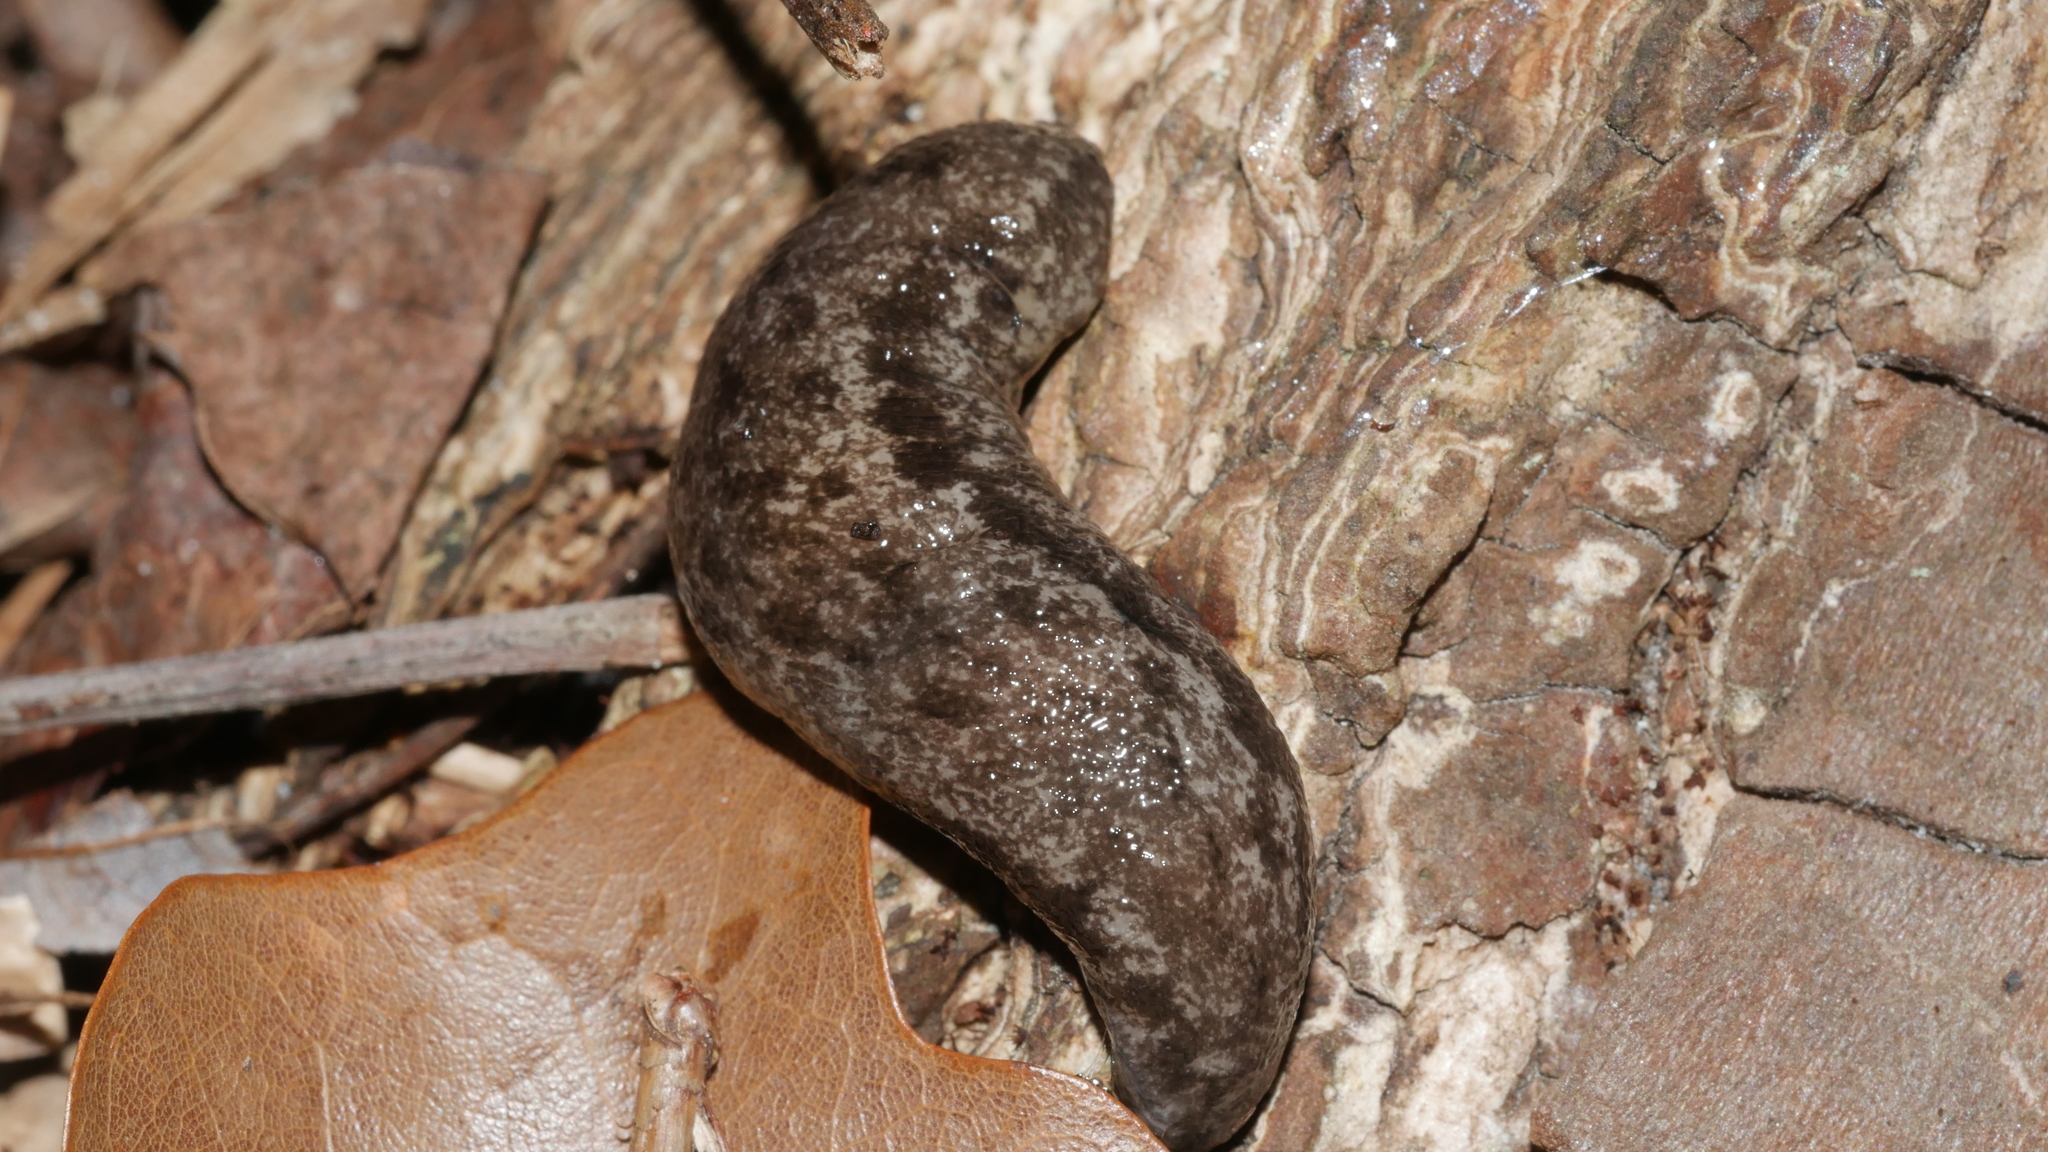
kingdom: Animalia
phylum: Mollusca
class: Gastropoda
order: Stylommatophora
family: Philomycidae
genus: Megapallifera
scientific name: Megapallifera mutabilis
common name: Changeable mantleslug
